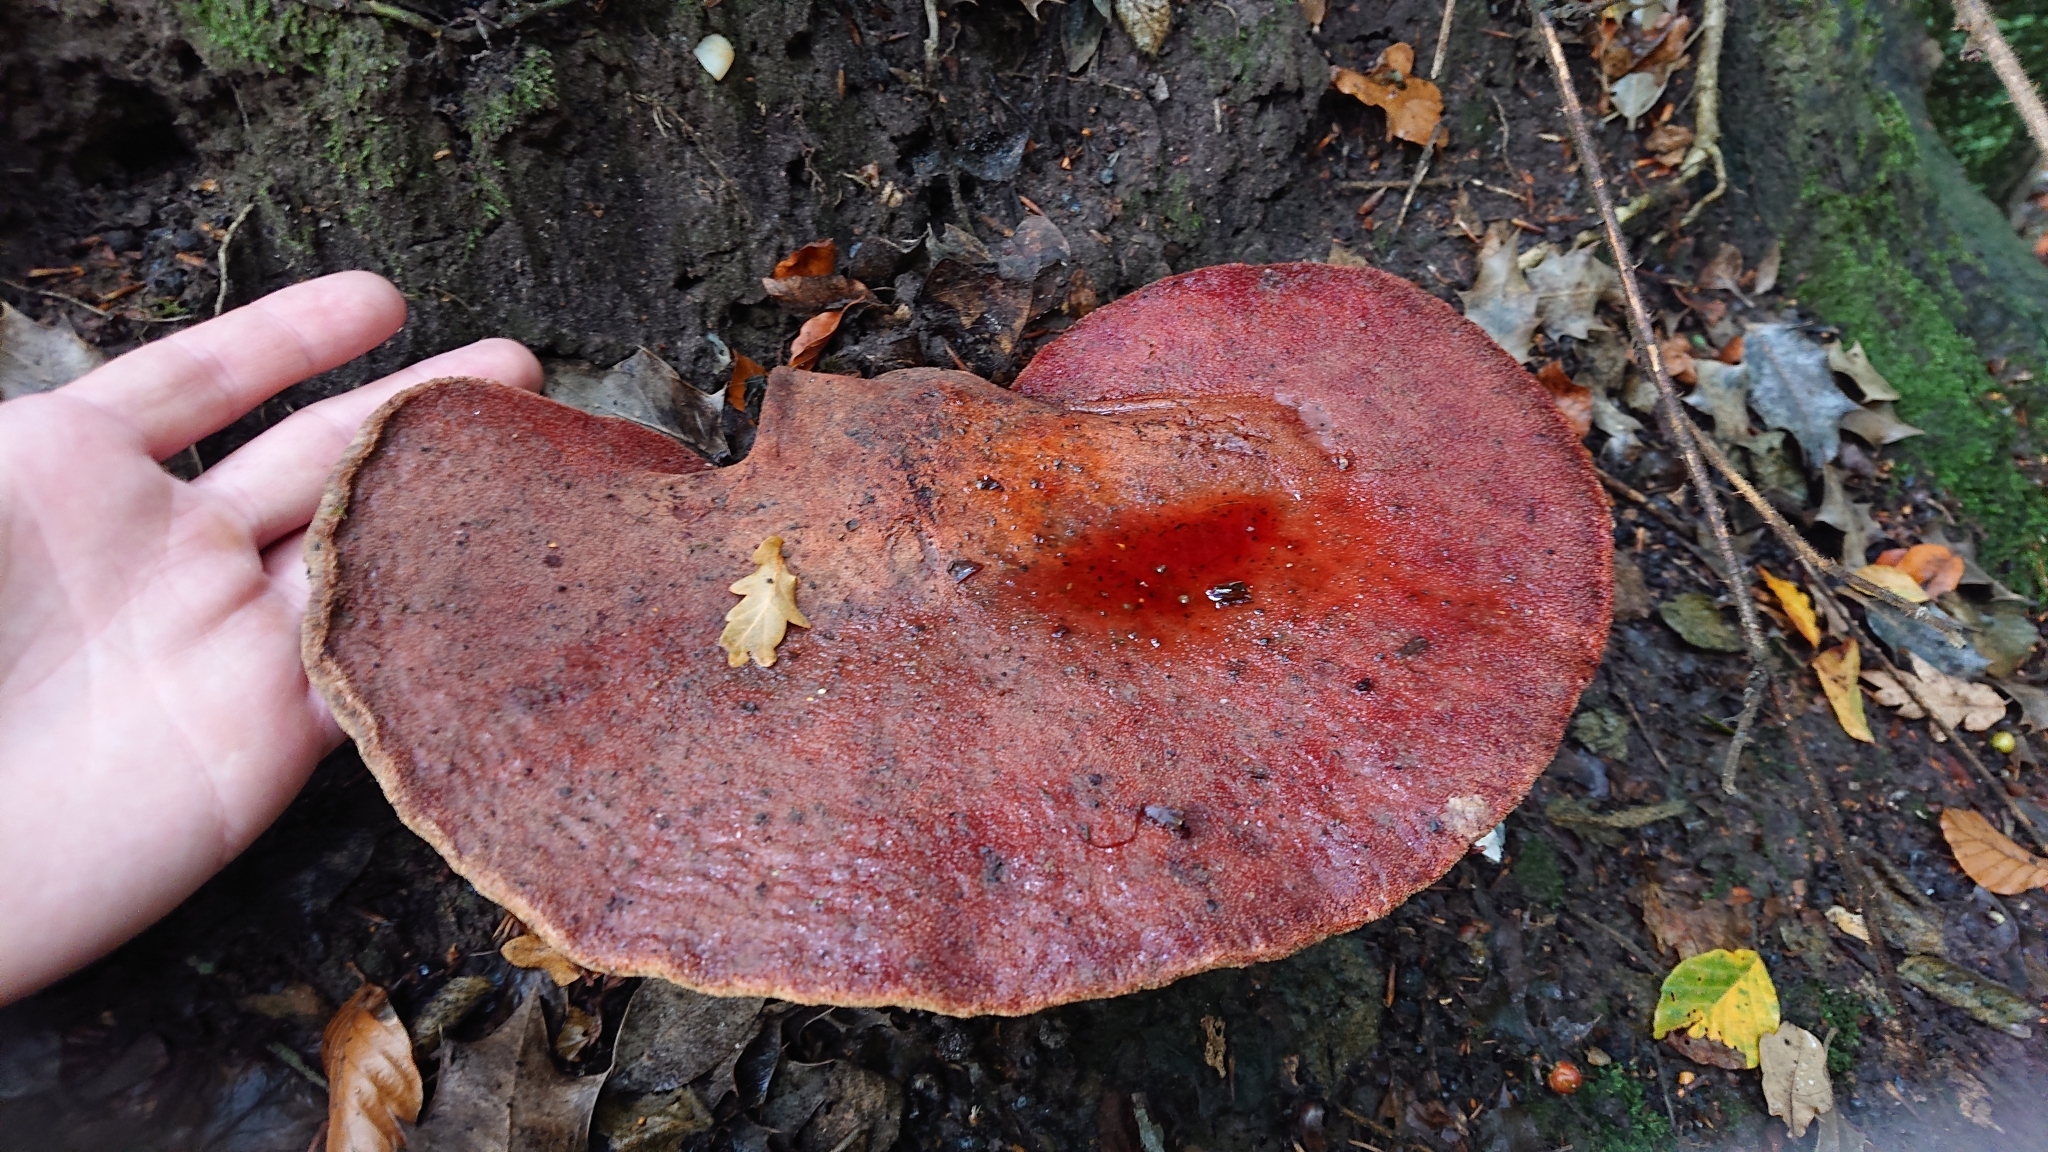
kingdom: Fungi
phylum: Basidiomycota
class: Agaricomycetes
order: Agaricales
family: Fistulinaceae
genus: Fistulina
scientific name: Fistulina hepatica
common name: Beef-steak fungus
